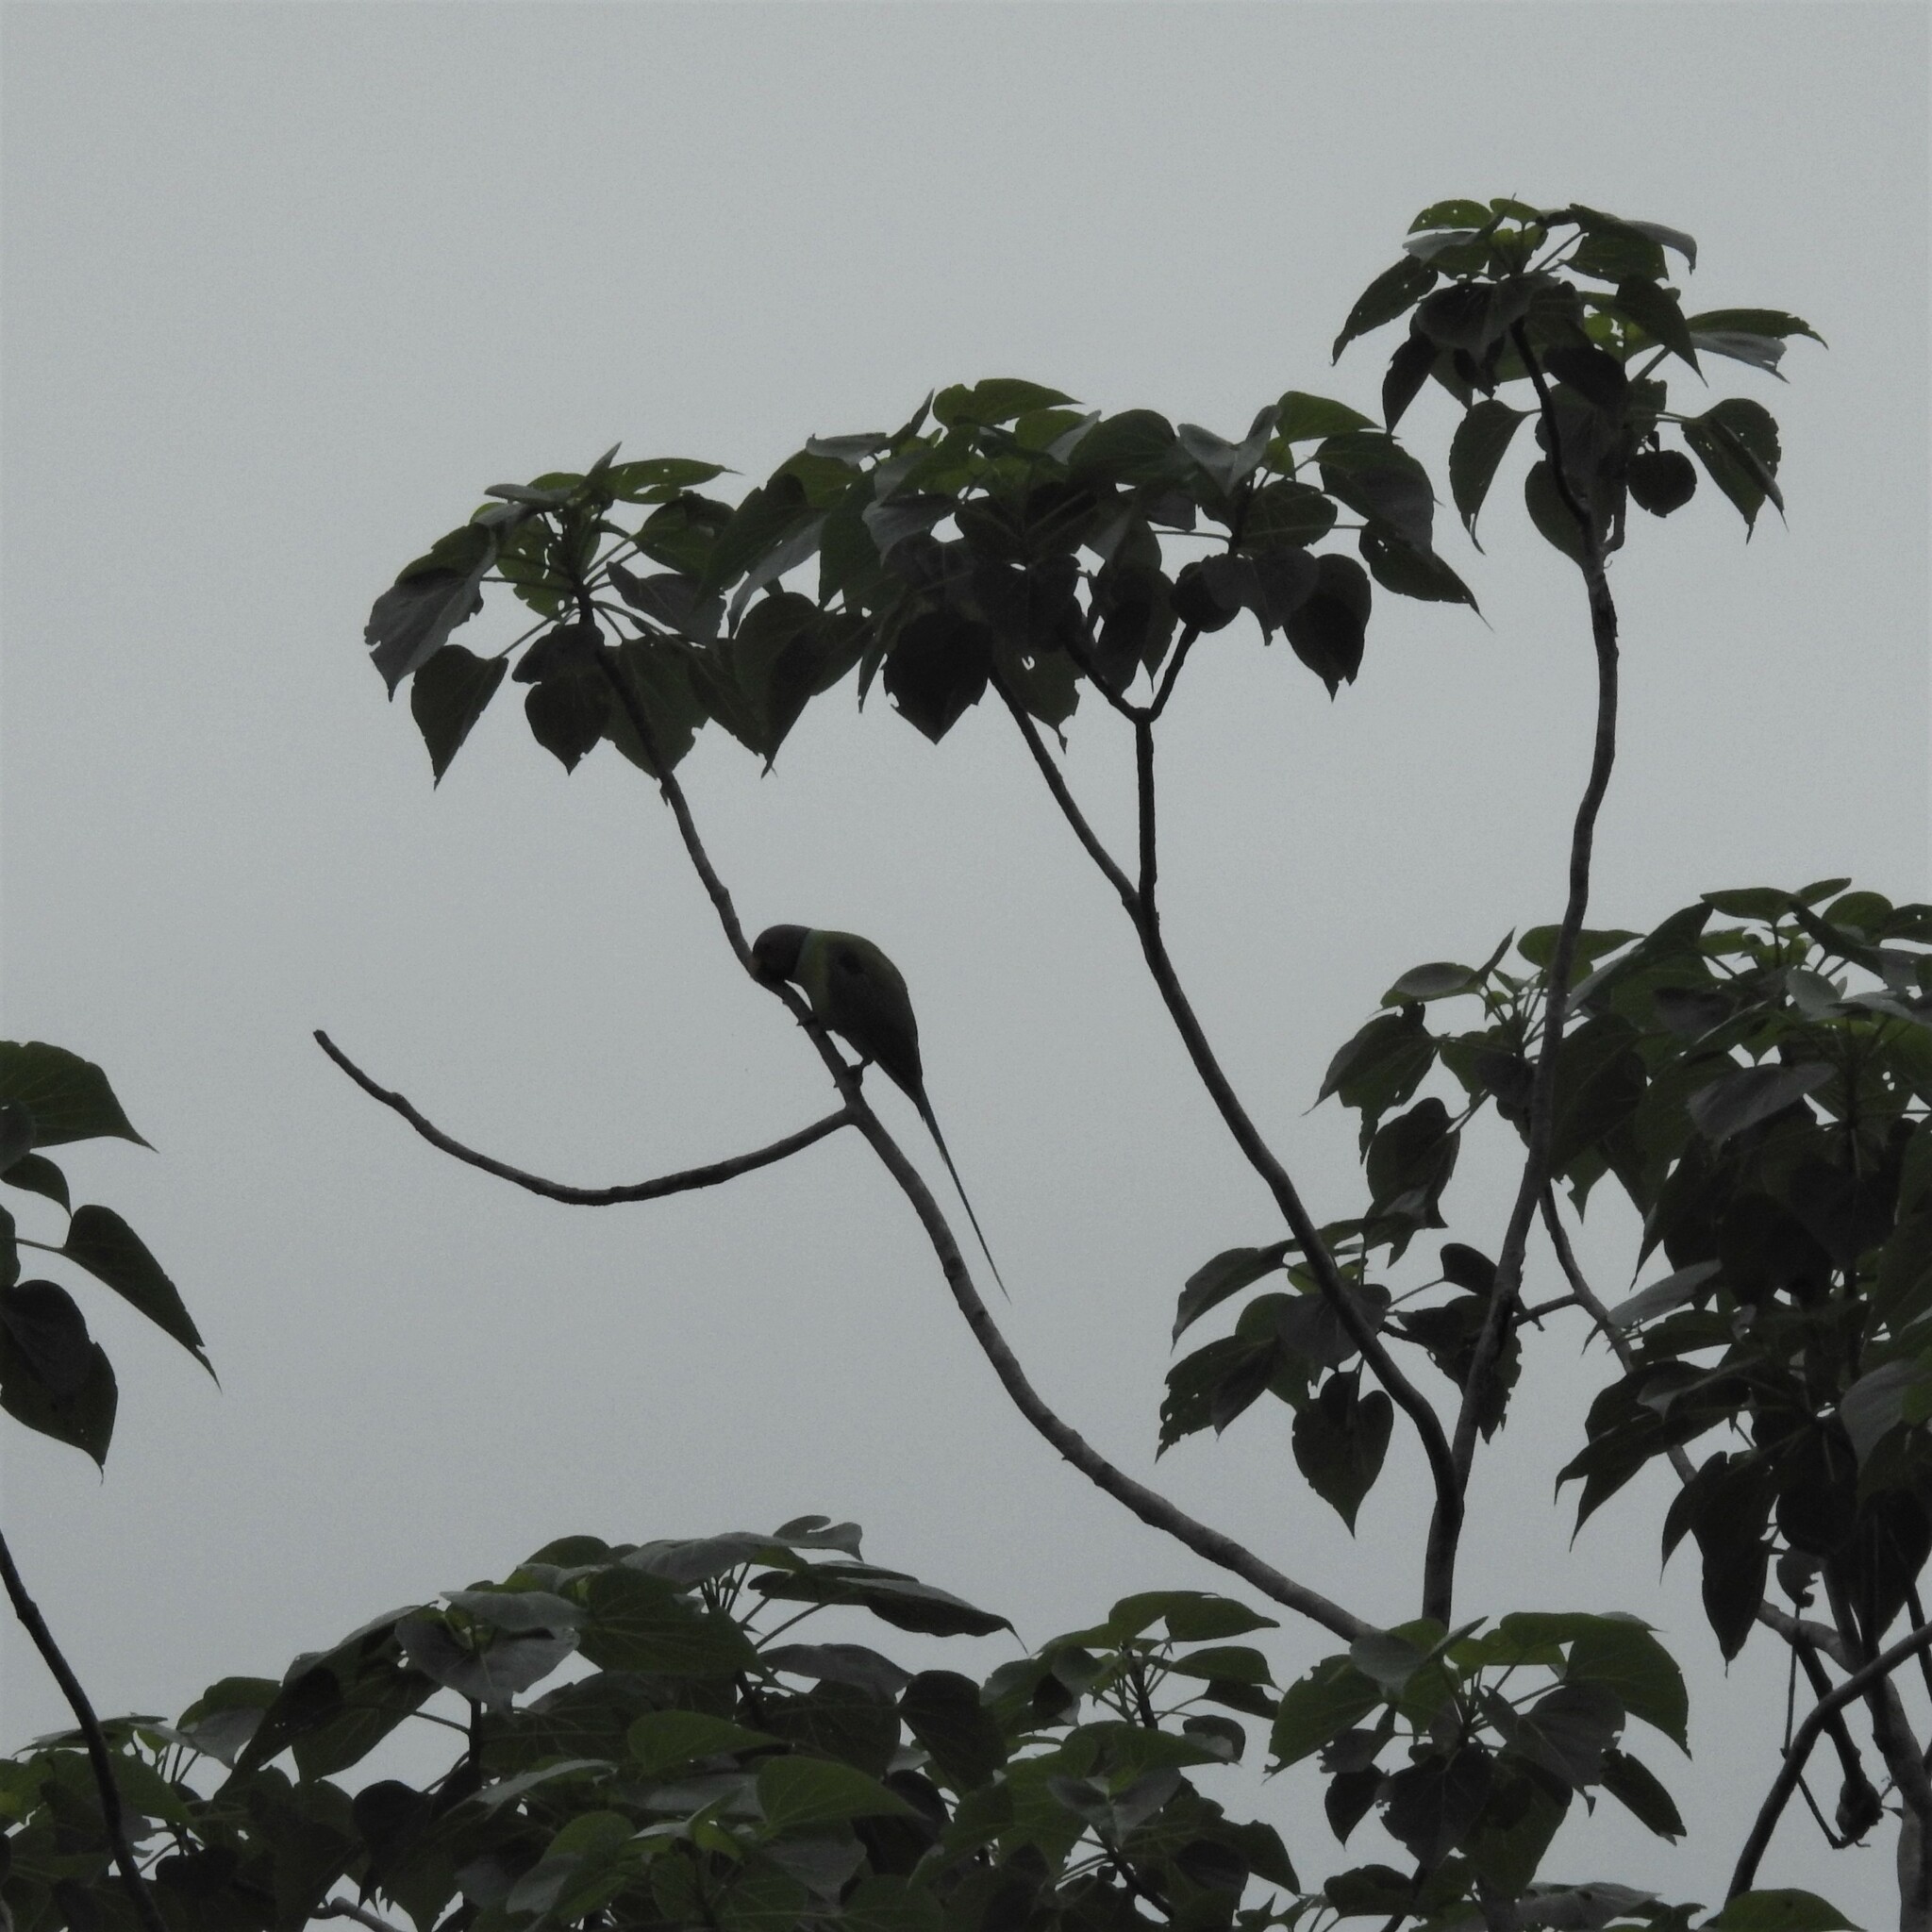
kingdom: Animalia
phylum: Chordata
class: Aves
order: Psittaciformes
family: Psittacidae
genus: Psittacula
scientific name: Psittacula cyanocephala
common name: Plum-headed parakeet
